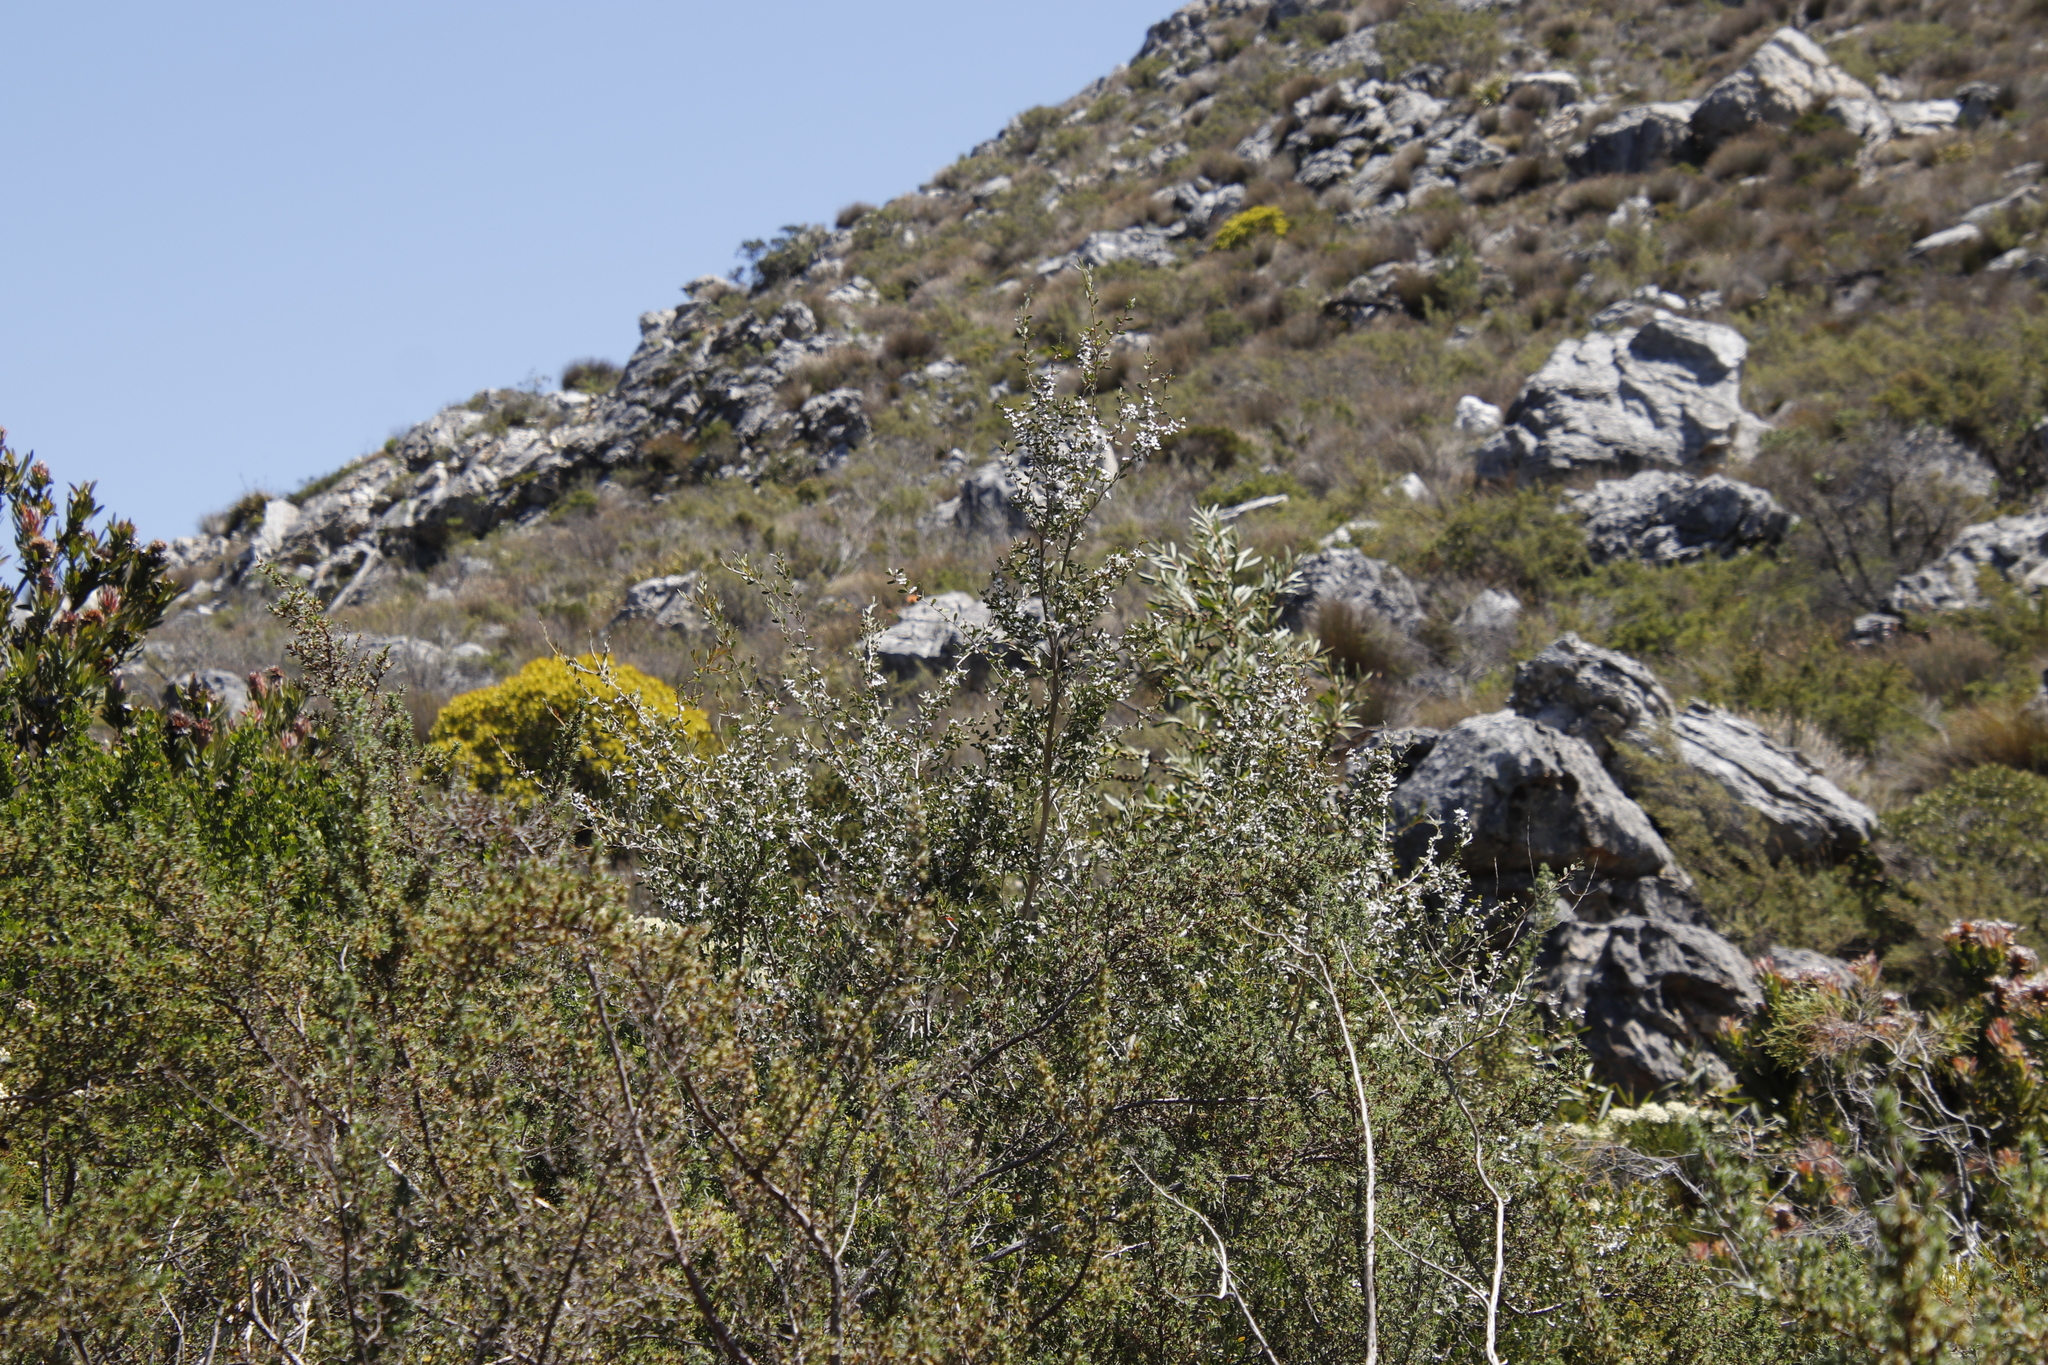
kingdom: Plantae
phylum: Tracheophyta
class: Magnoliopsida
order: Myrtales
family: Myrtaceae
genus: Leptospermum
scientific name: Leptospermum laevigatum
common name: Australian teatree
